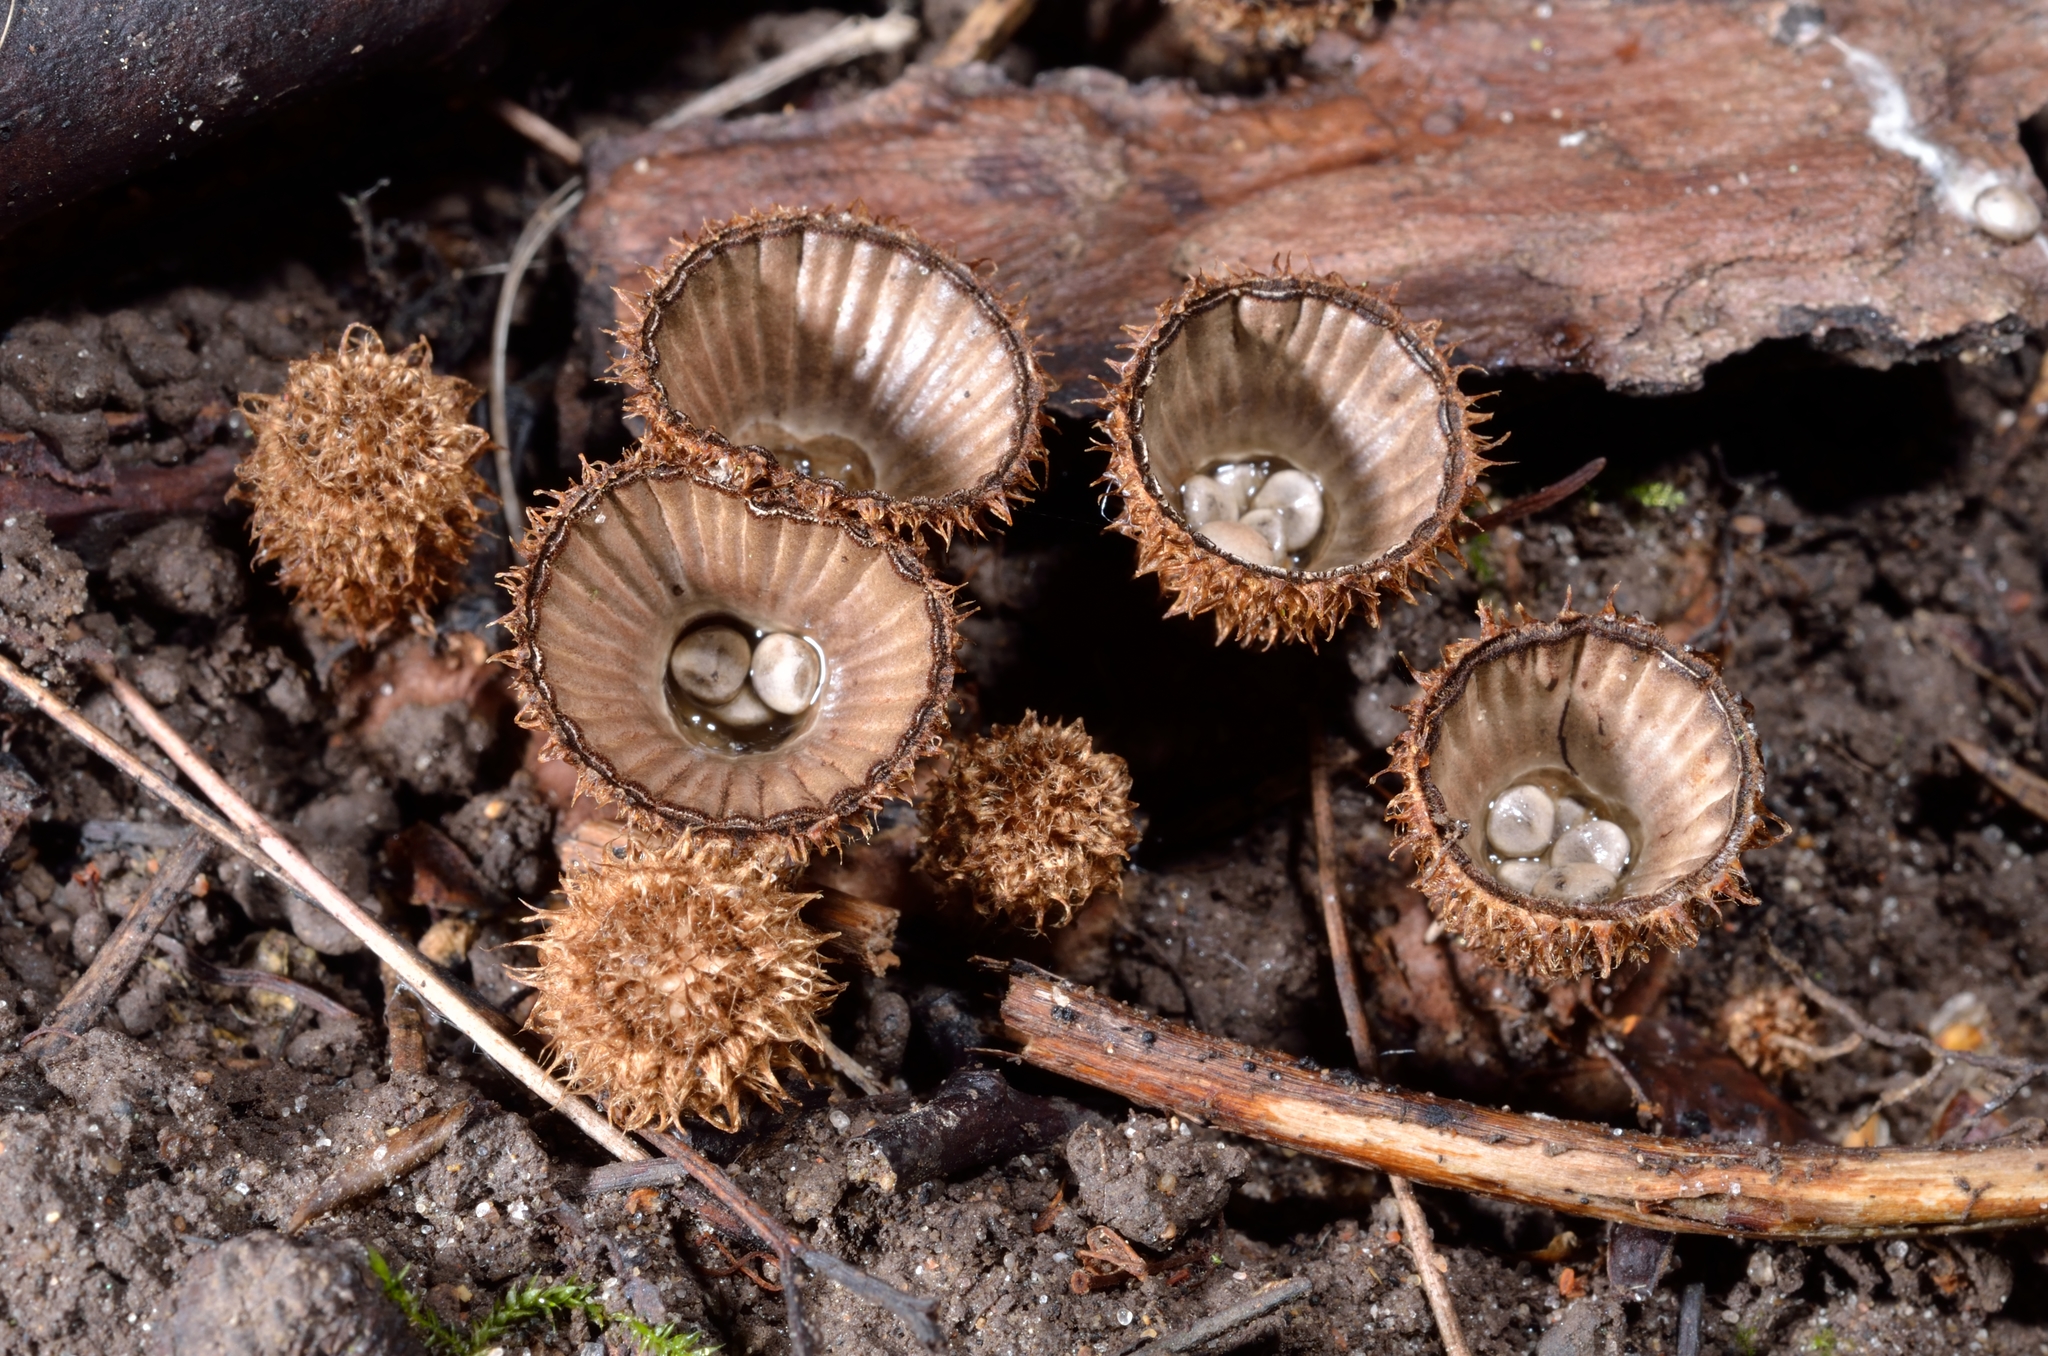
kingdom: Fungi
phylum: Basidiomycota
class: Agaricomycetes
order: Agaricales
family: Agaricaceae
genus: Cyathus
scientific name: Cyathus striatus
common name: Fluted bird's nest
